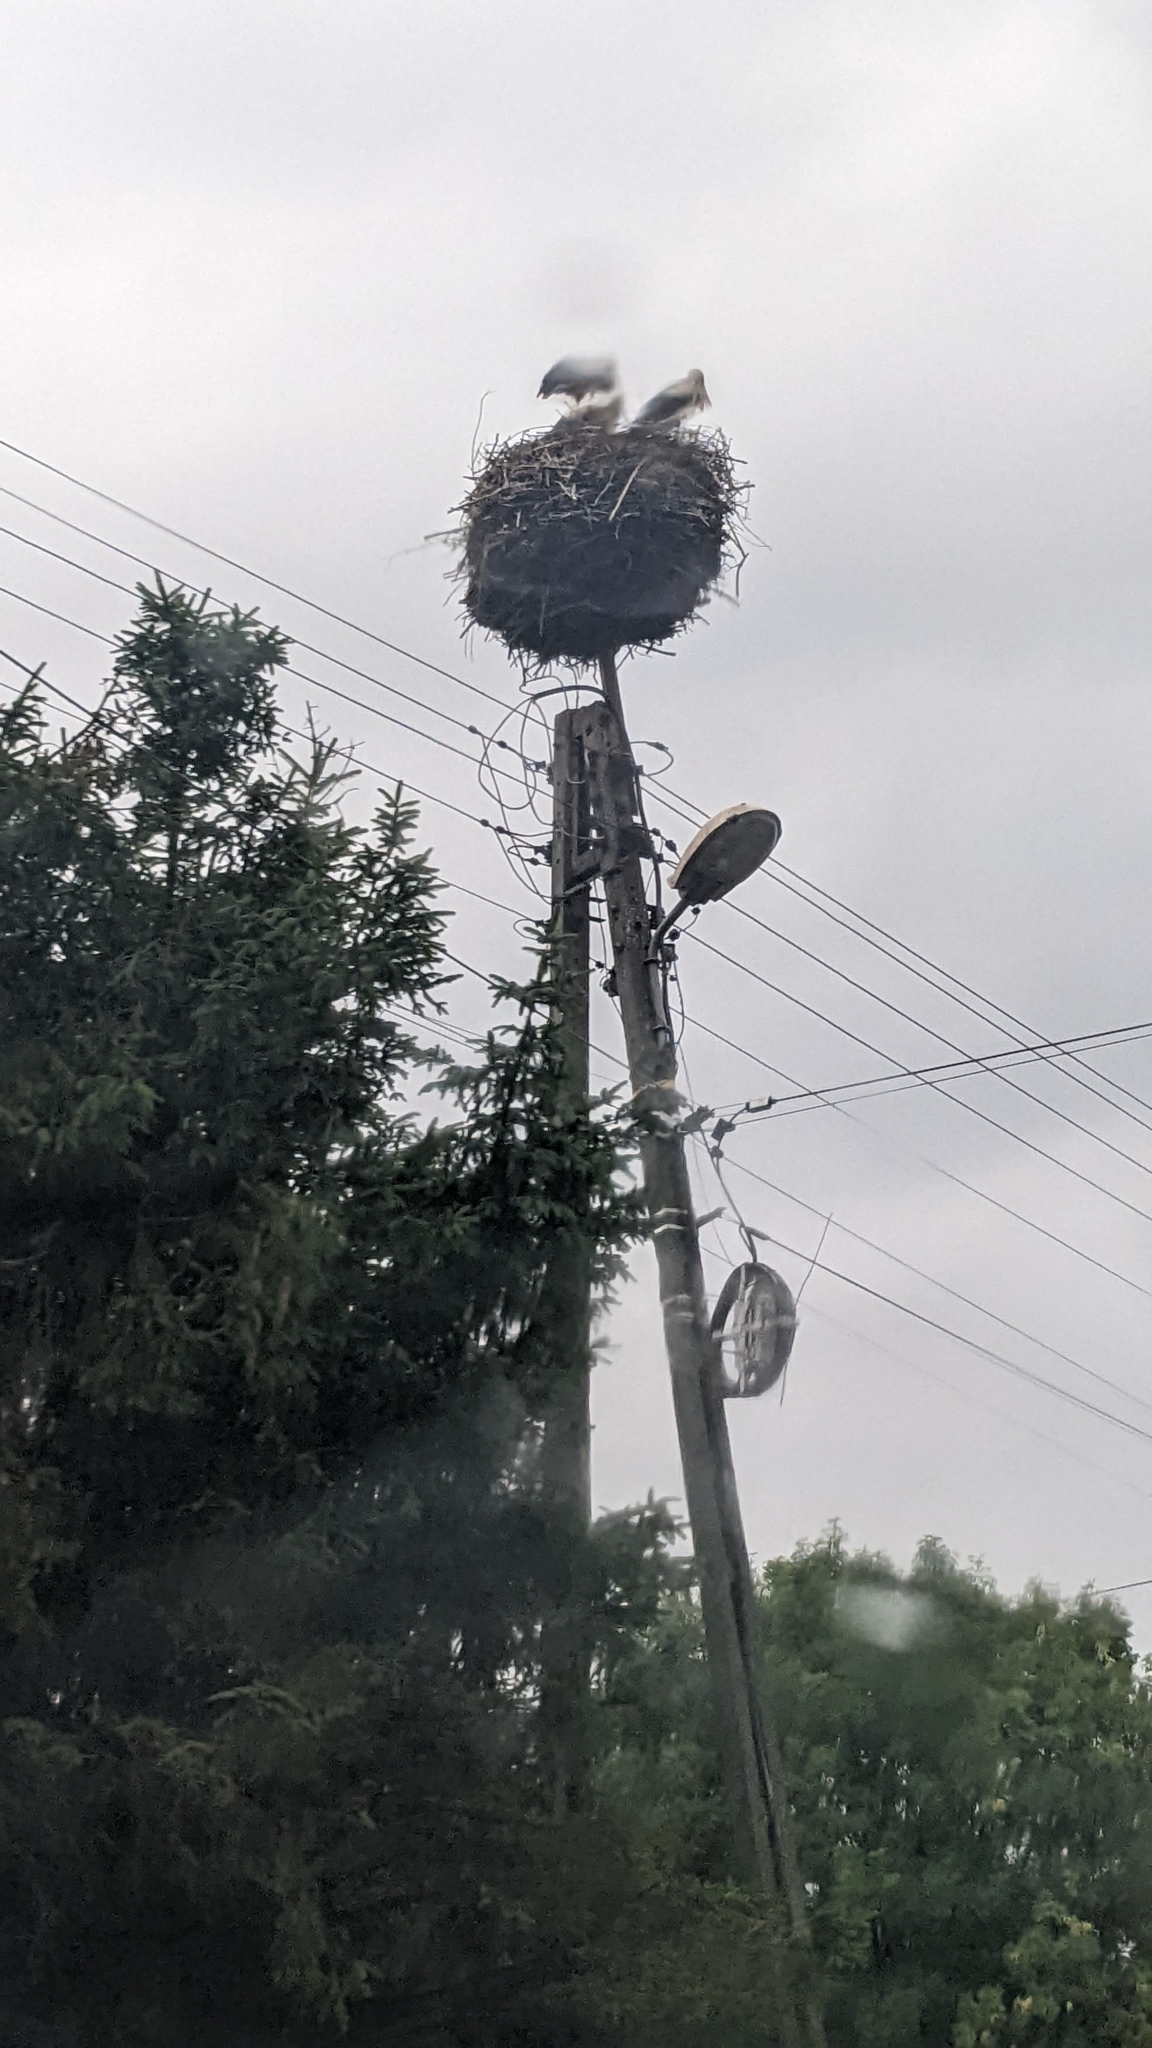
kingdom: Animalia
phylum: Chordata
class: Aves
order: Ciconiiformes
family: Ciconiidae
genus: Ciconia
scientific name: Ciconia ciconia
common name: White stork
